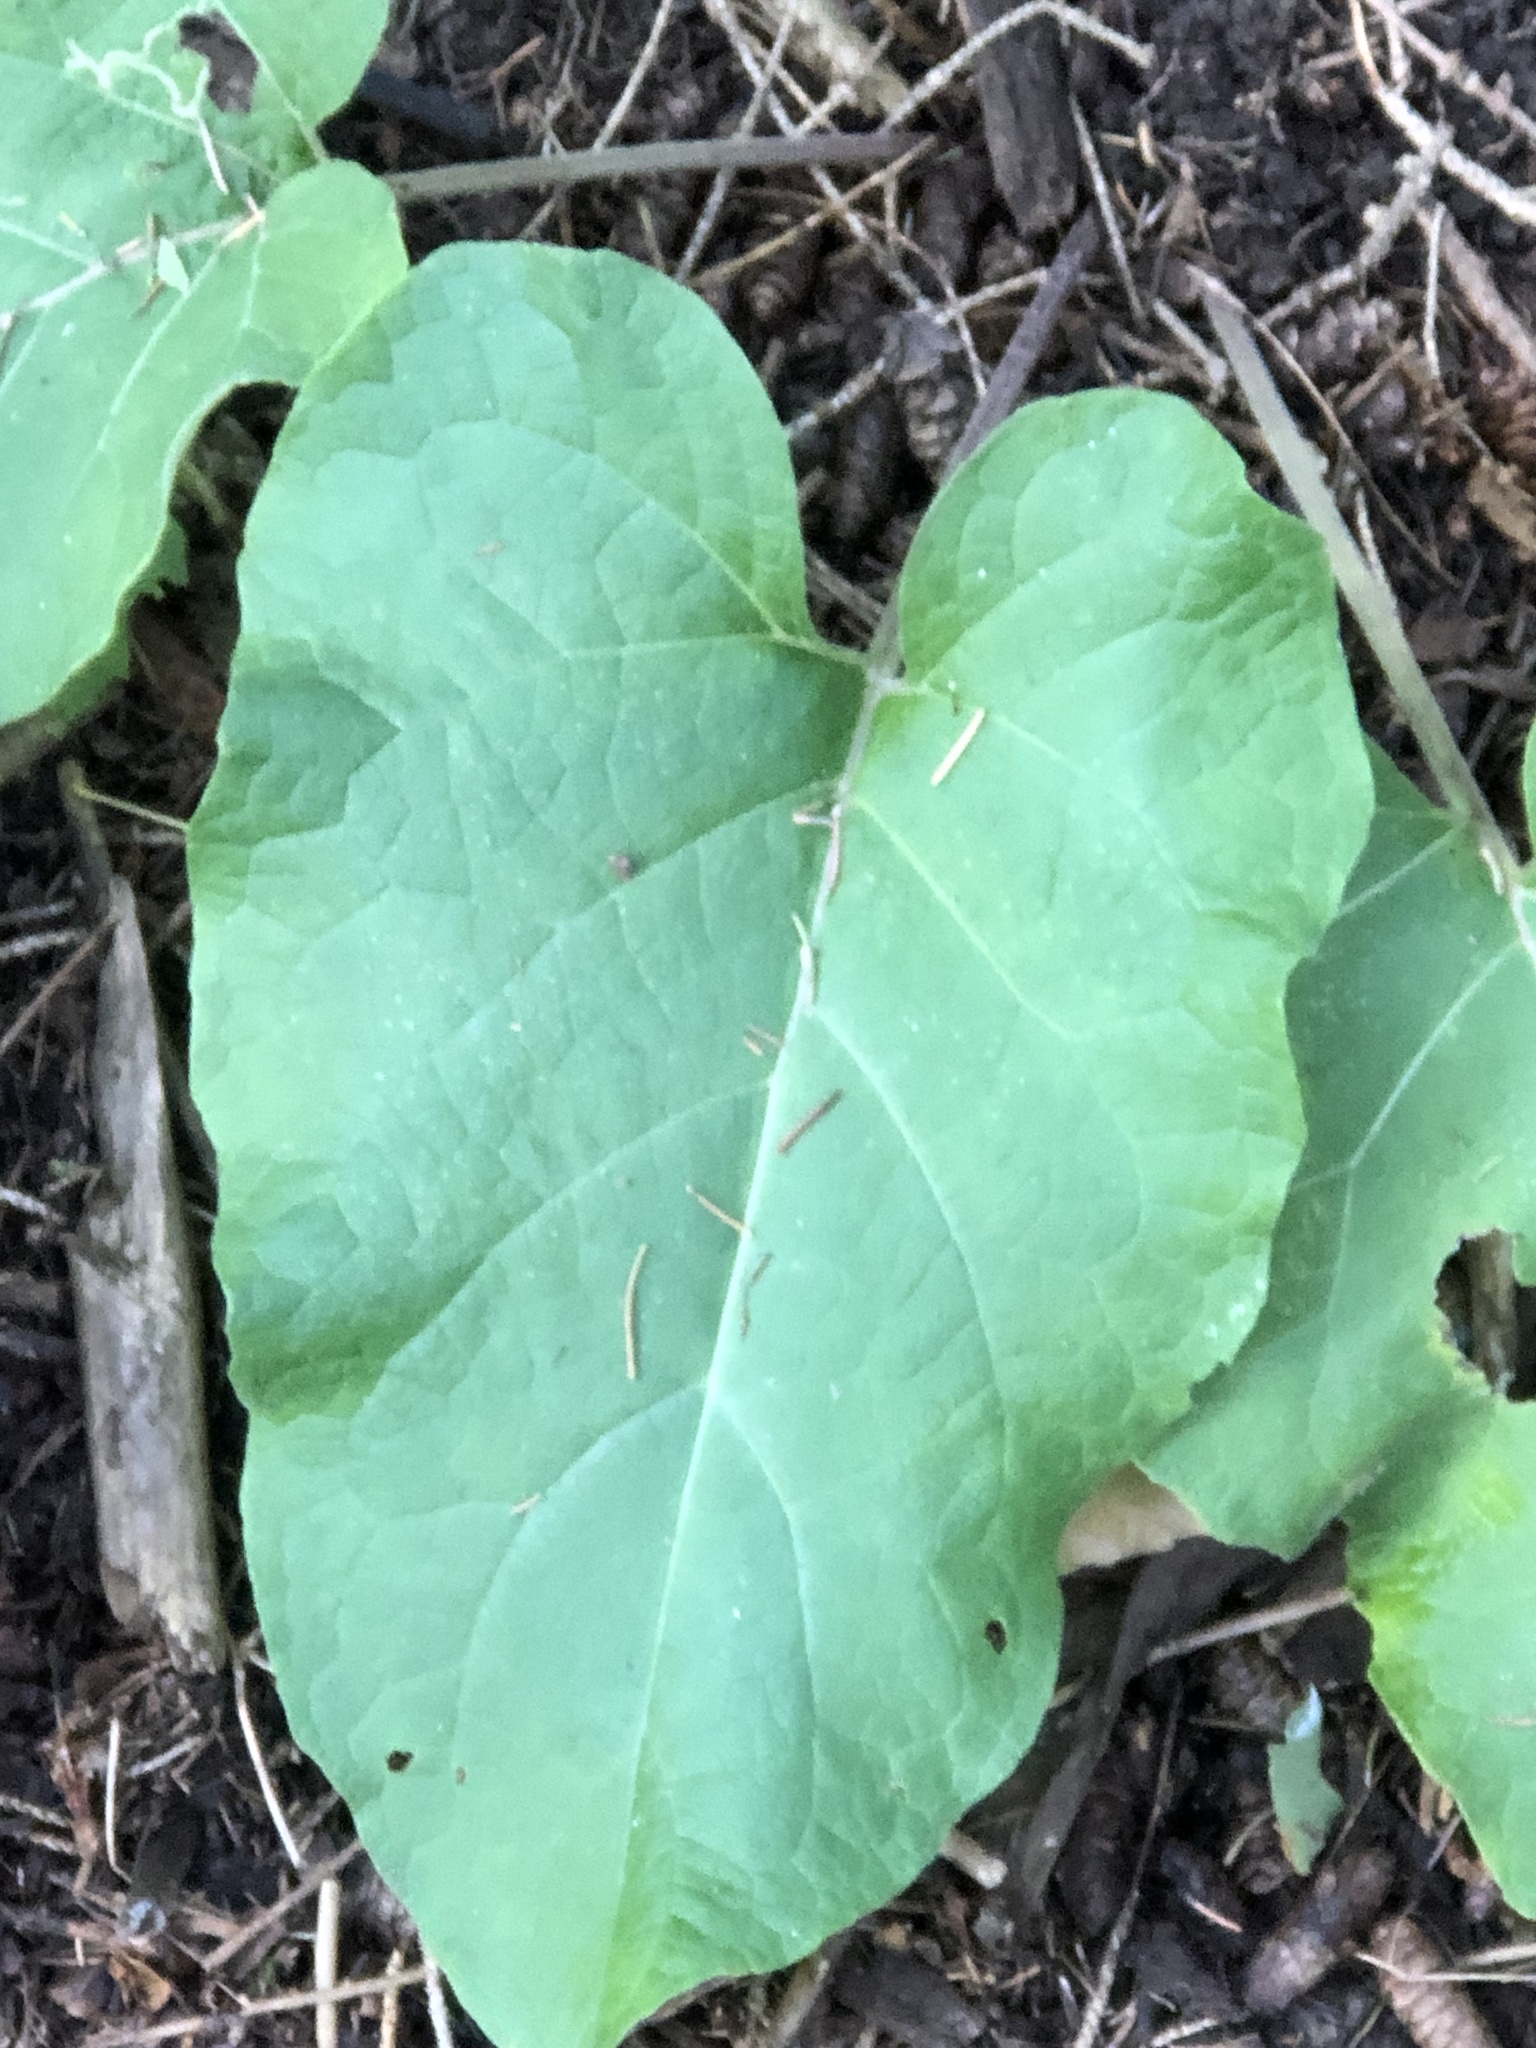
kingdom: Plantae
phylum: Tracheophyta
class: Magnoliopsida
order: Asterales
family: Asteraceae
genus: Arctium
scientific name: Arctium
